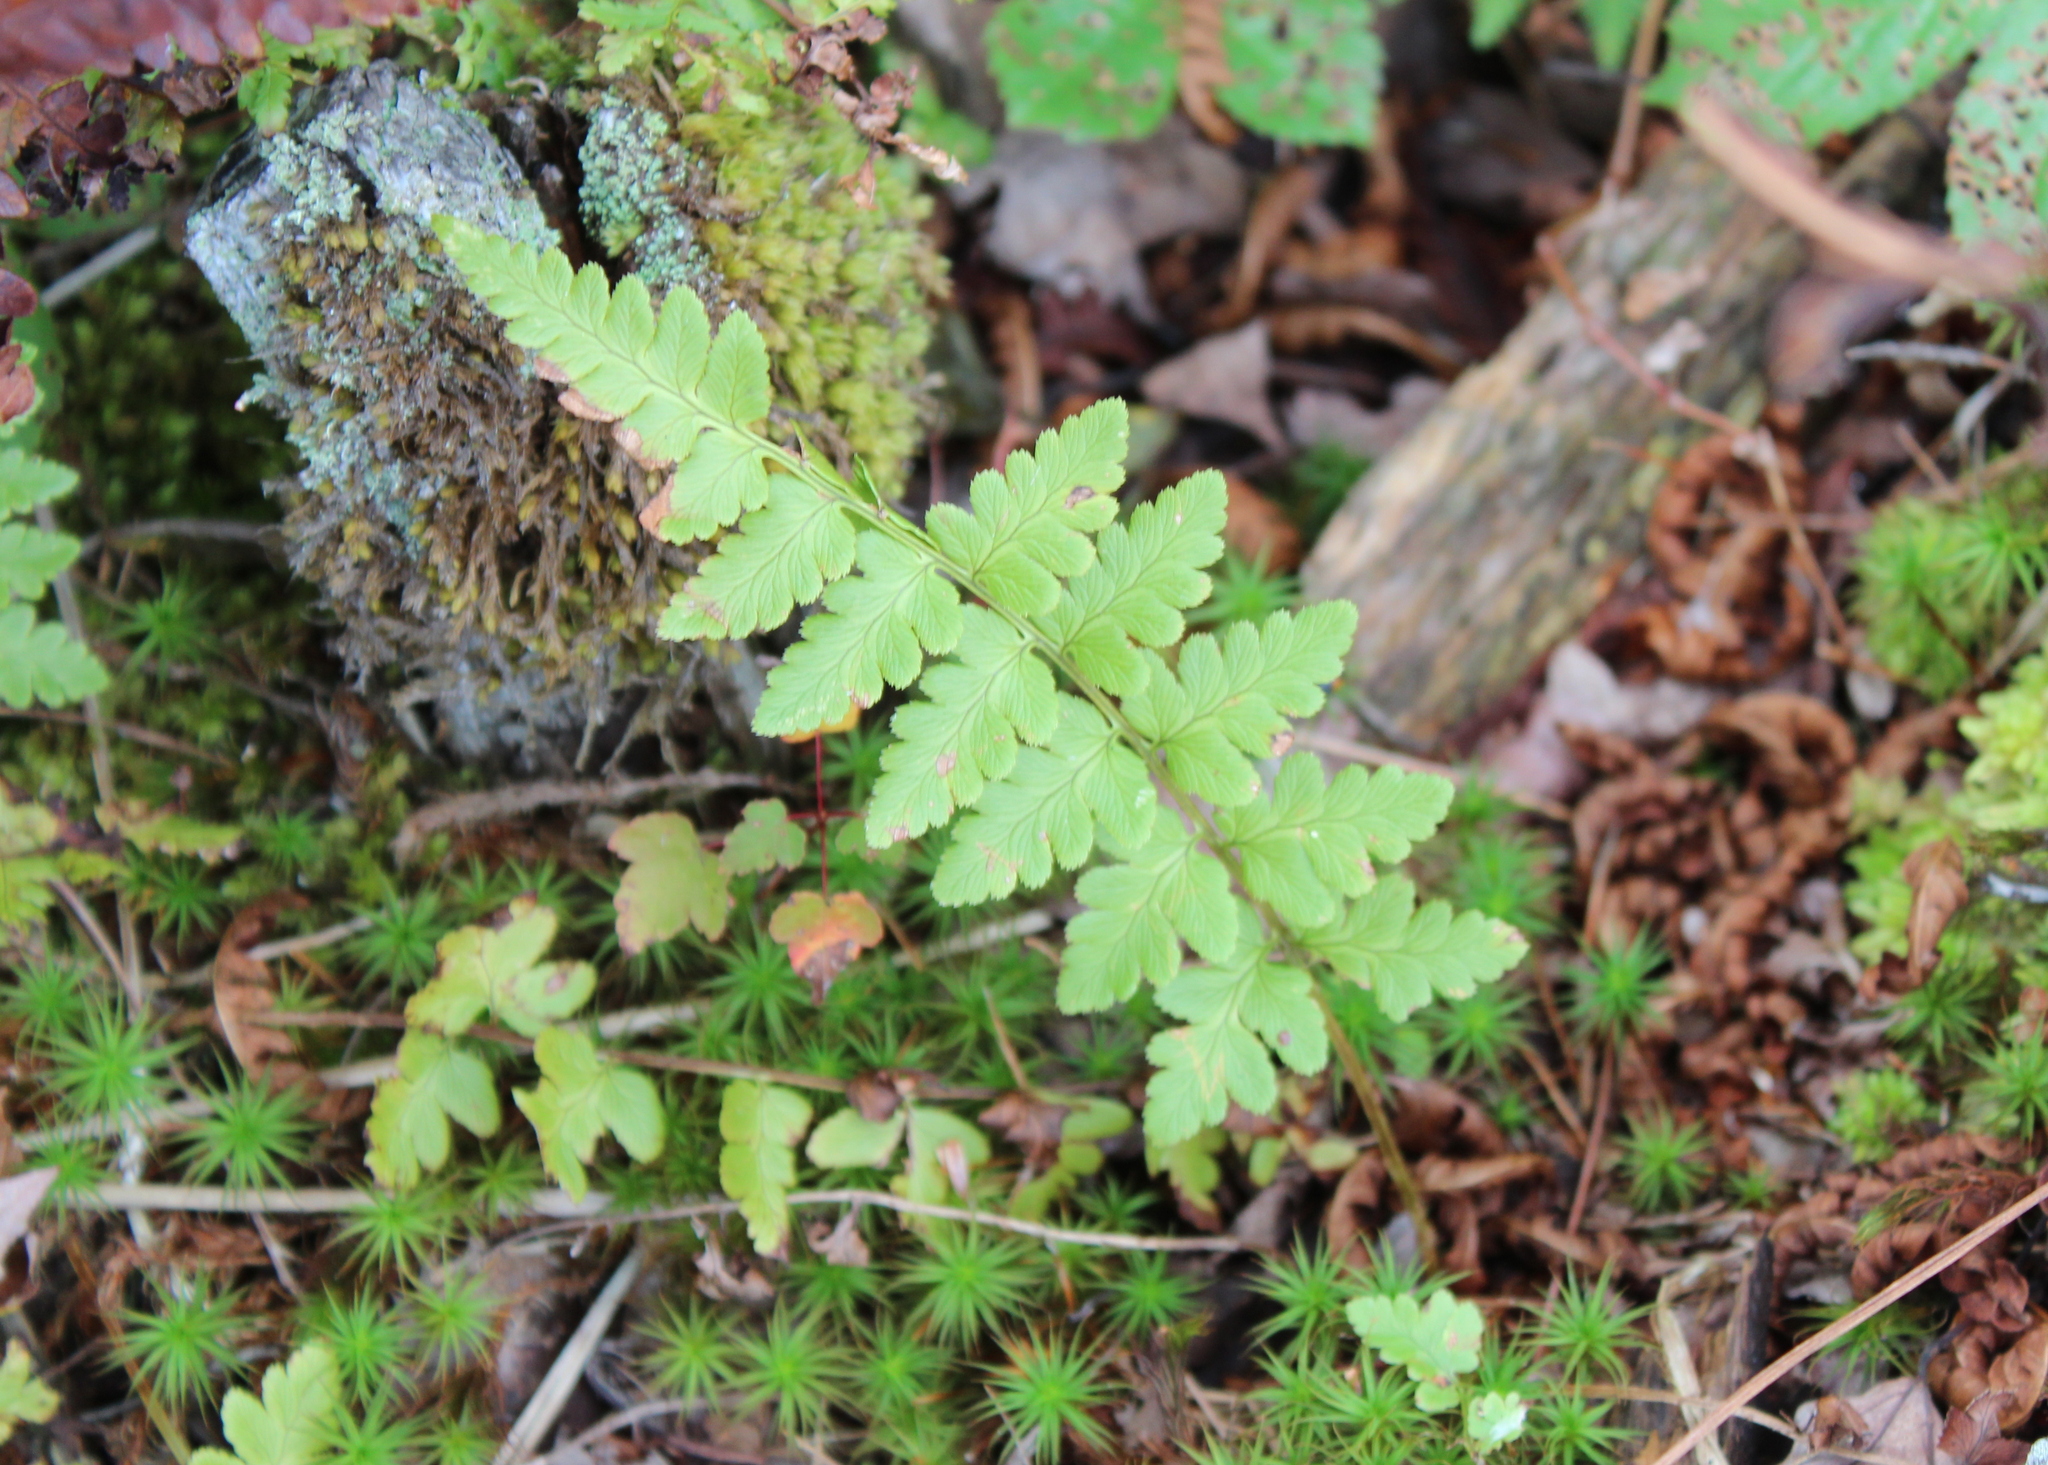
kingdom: Plantae
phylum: Tracheophyta
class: Polypodiopsida
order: Polypodiales
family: Dryopteridaceae
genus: Dryopteris
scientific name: Dryopteris cristata
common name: Crested wood fern
